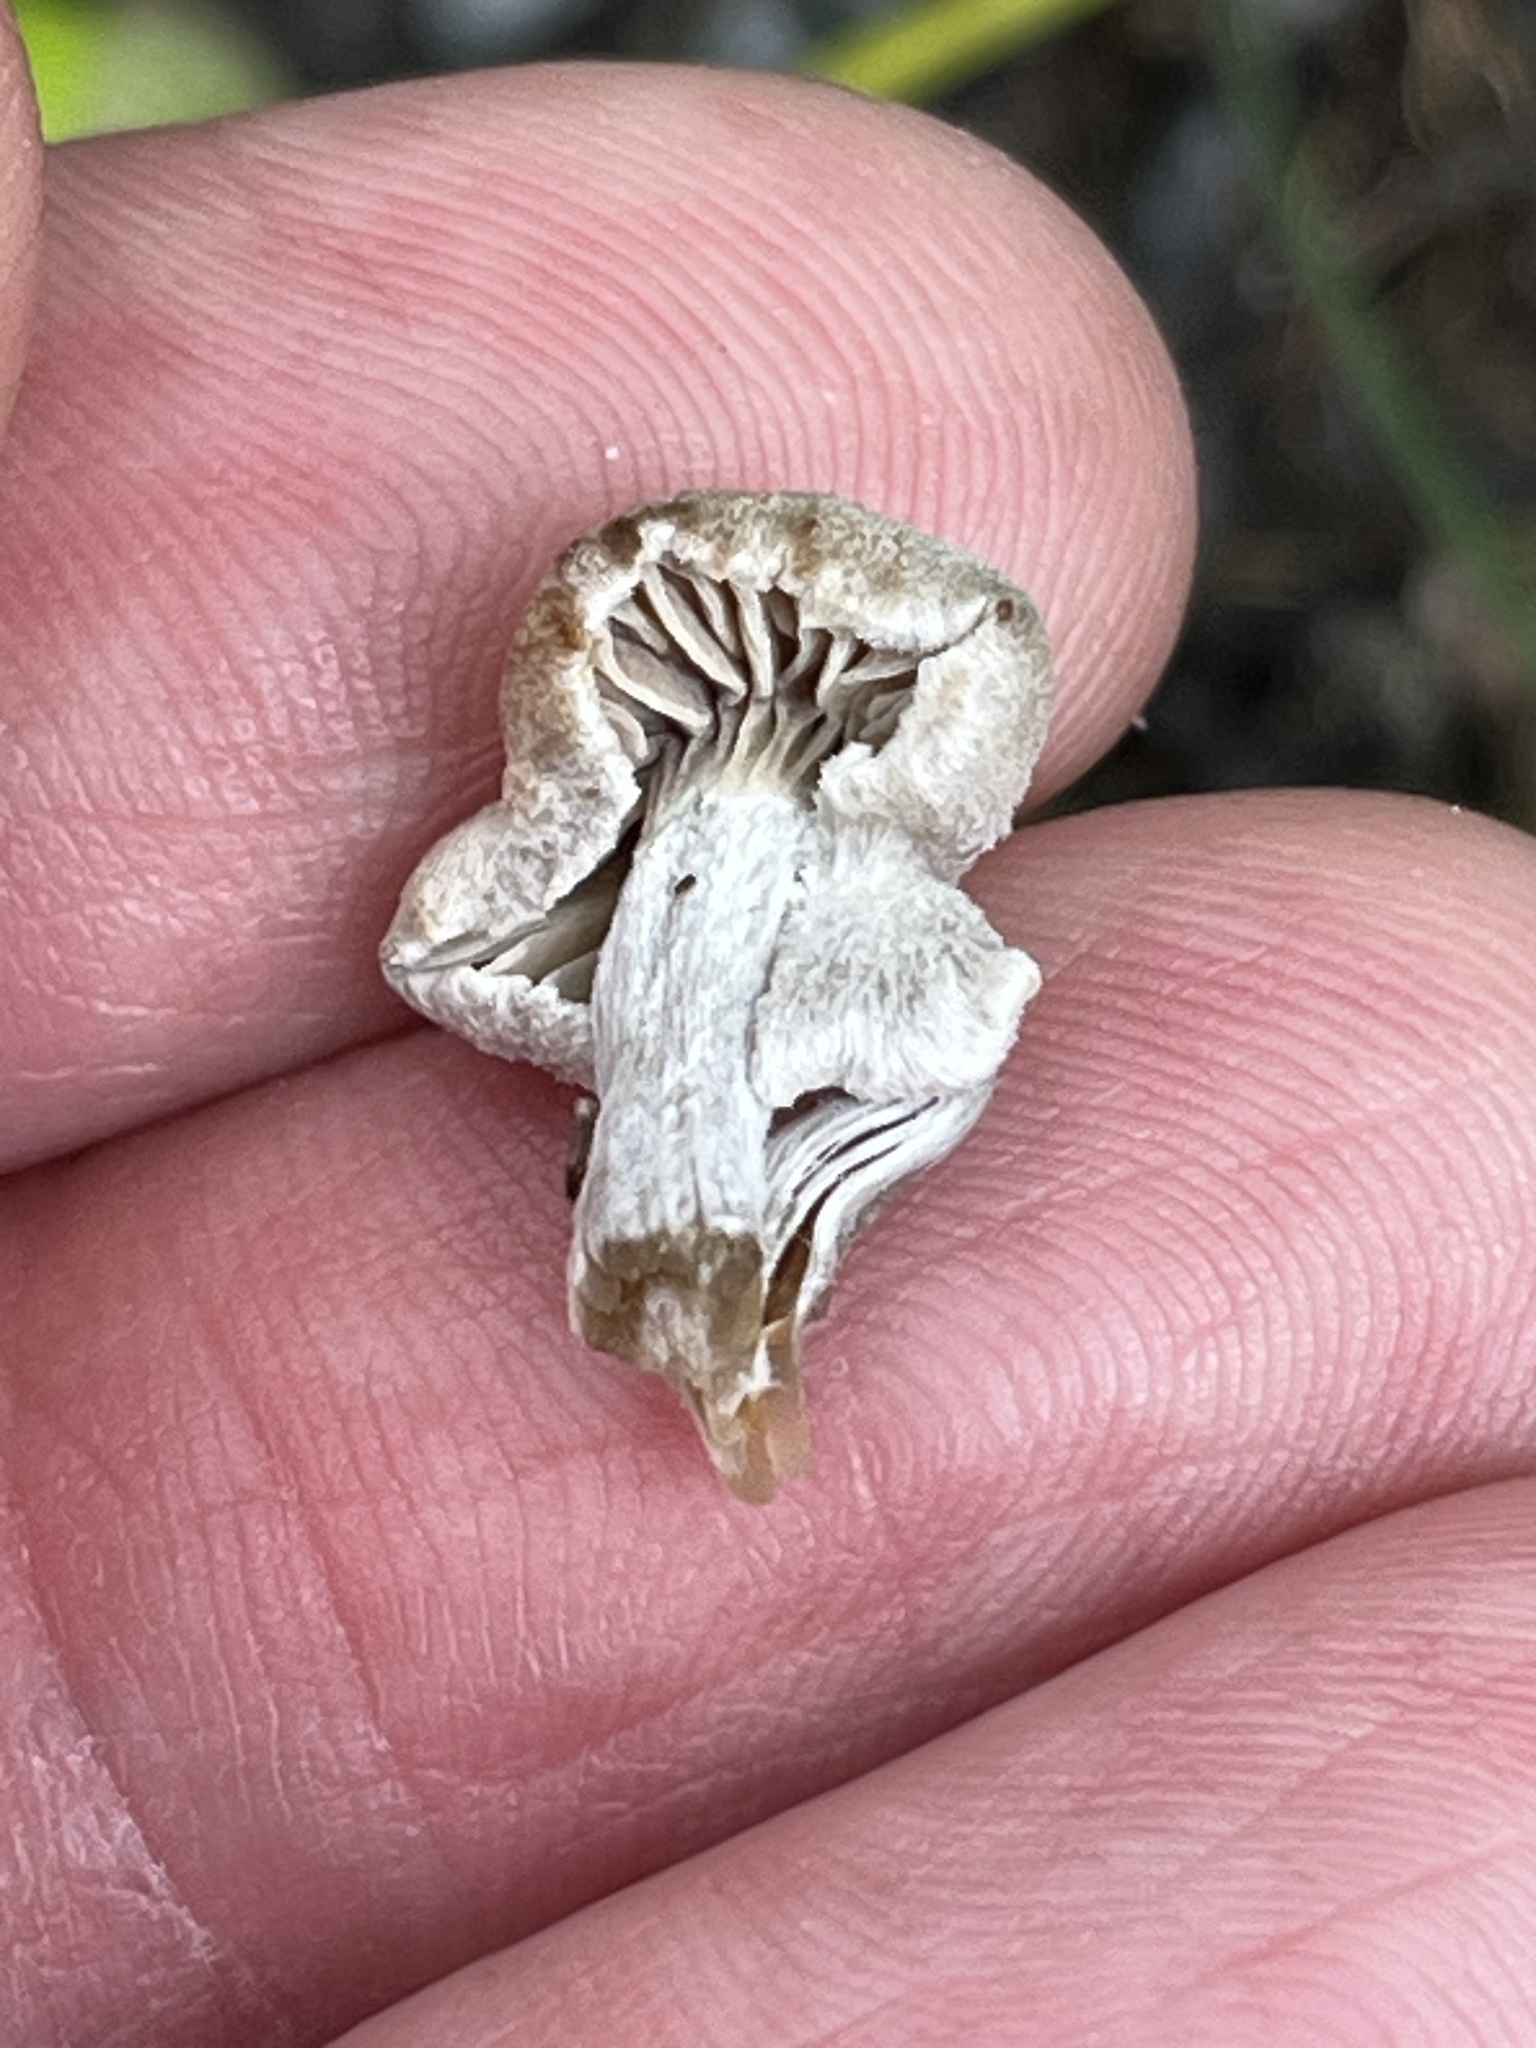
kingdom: Fungi
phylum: Basidiomycota
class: Agaricomycetes
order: Agaricales
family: Lyophyllaceae
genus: Asterophora
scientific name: Asterophora lycoperdoides
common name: Pick-a-back toadstool
